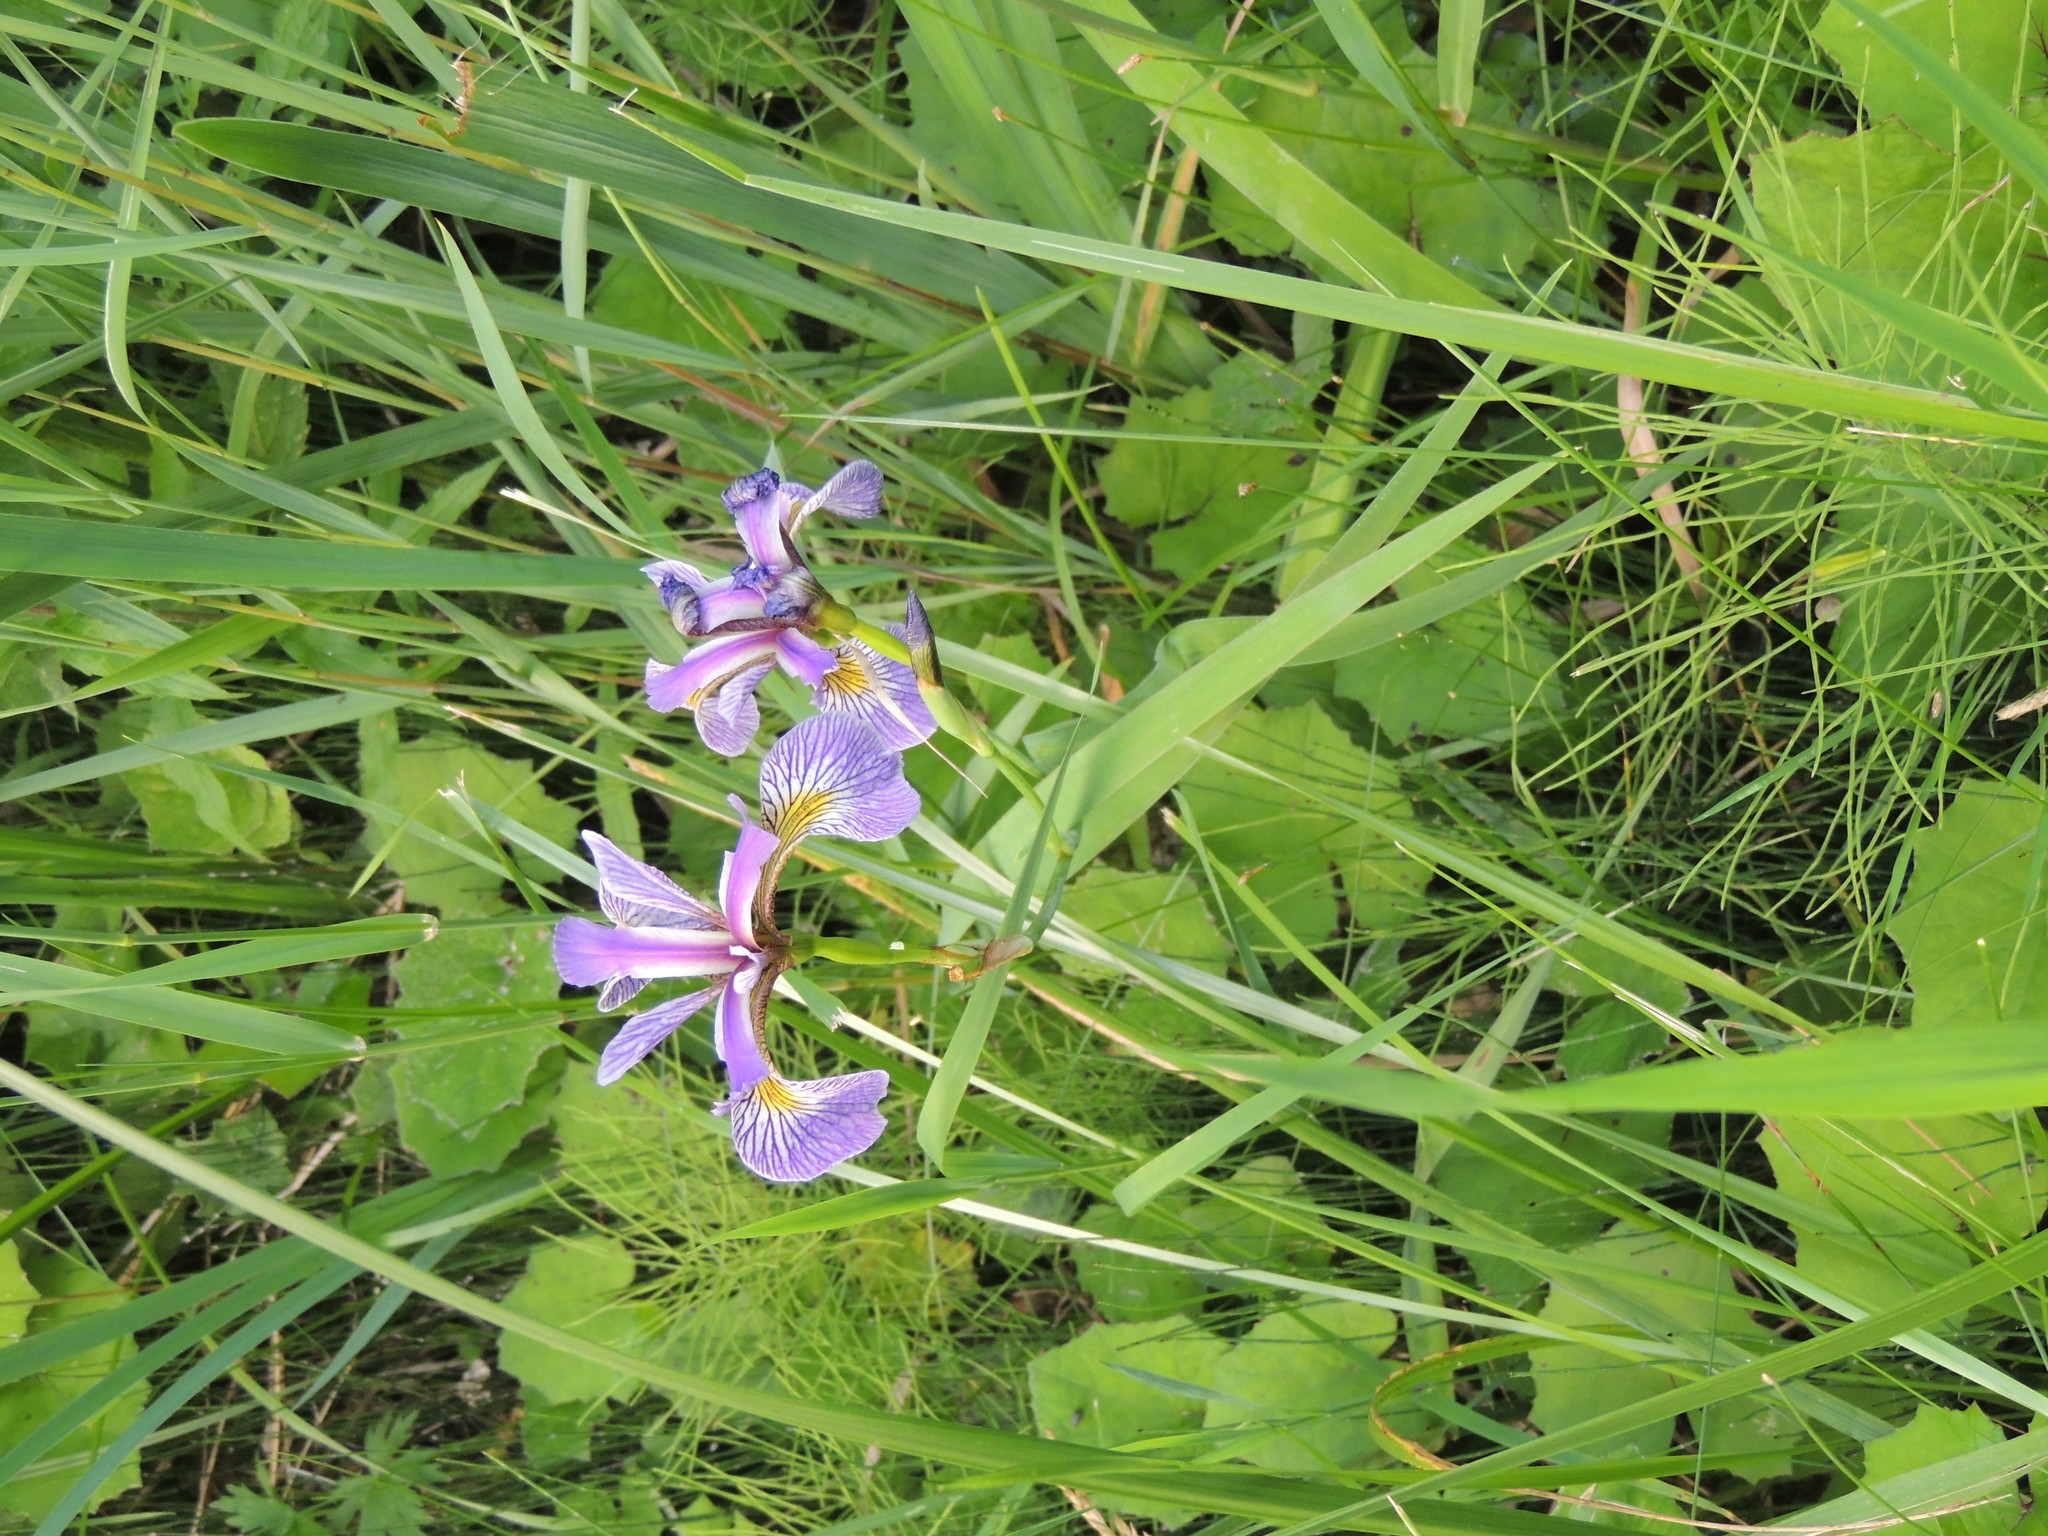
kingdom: Plantae
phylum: Tracheophyta
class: Liliopsida
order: Asparagales
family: Iridaceae
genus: Iris
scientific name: Iris versicolor
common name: Purple iris
